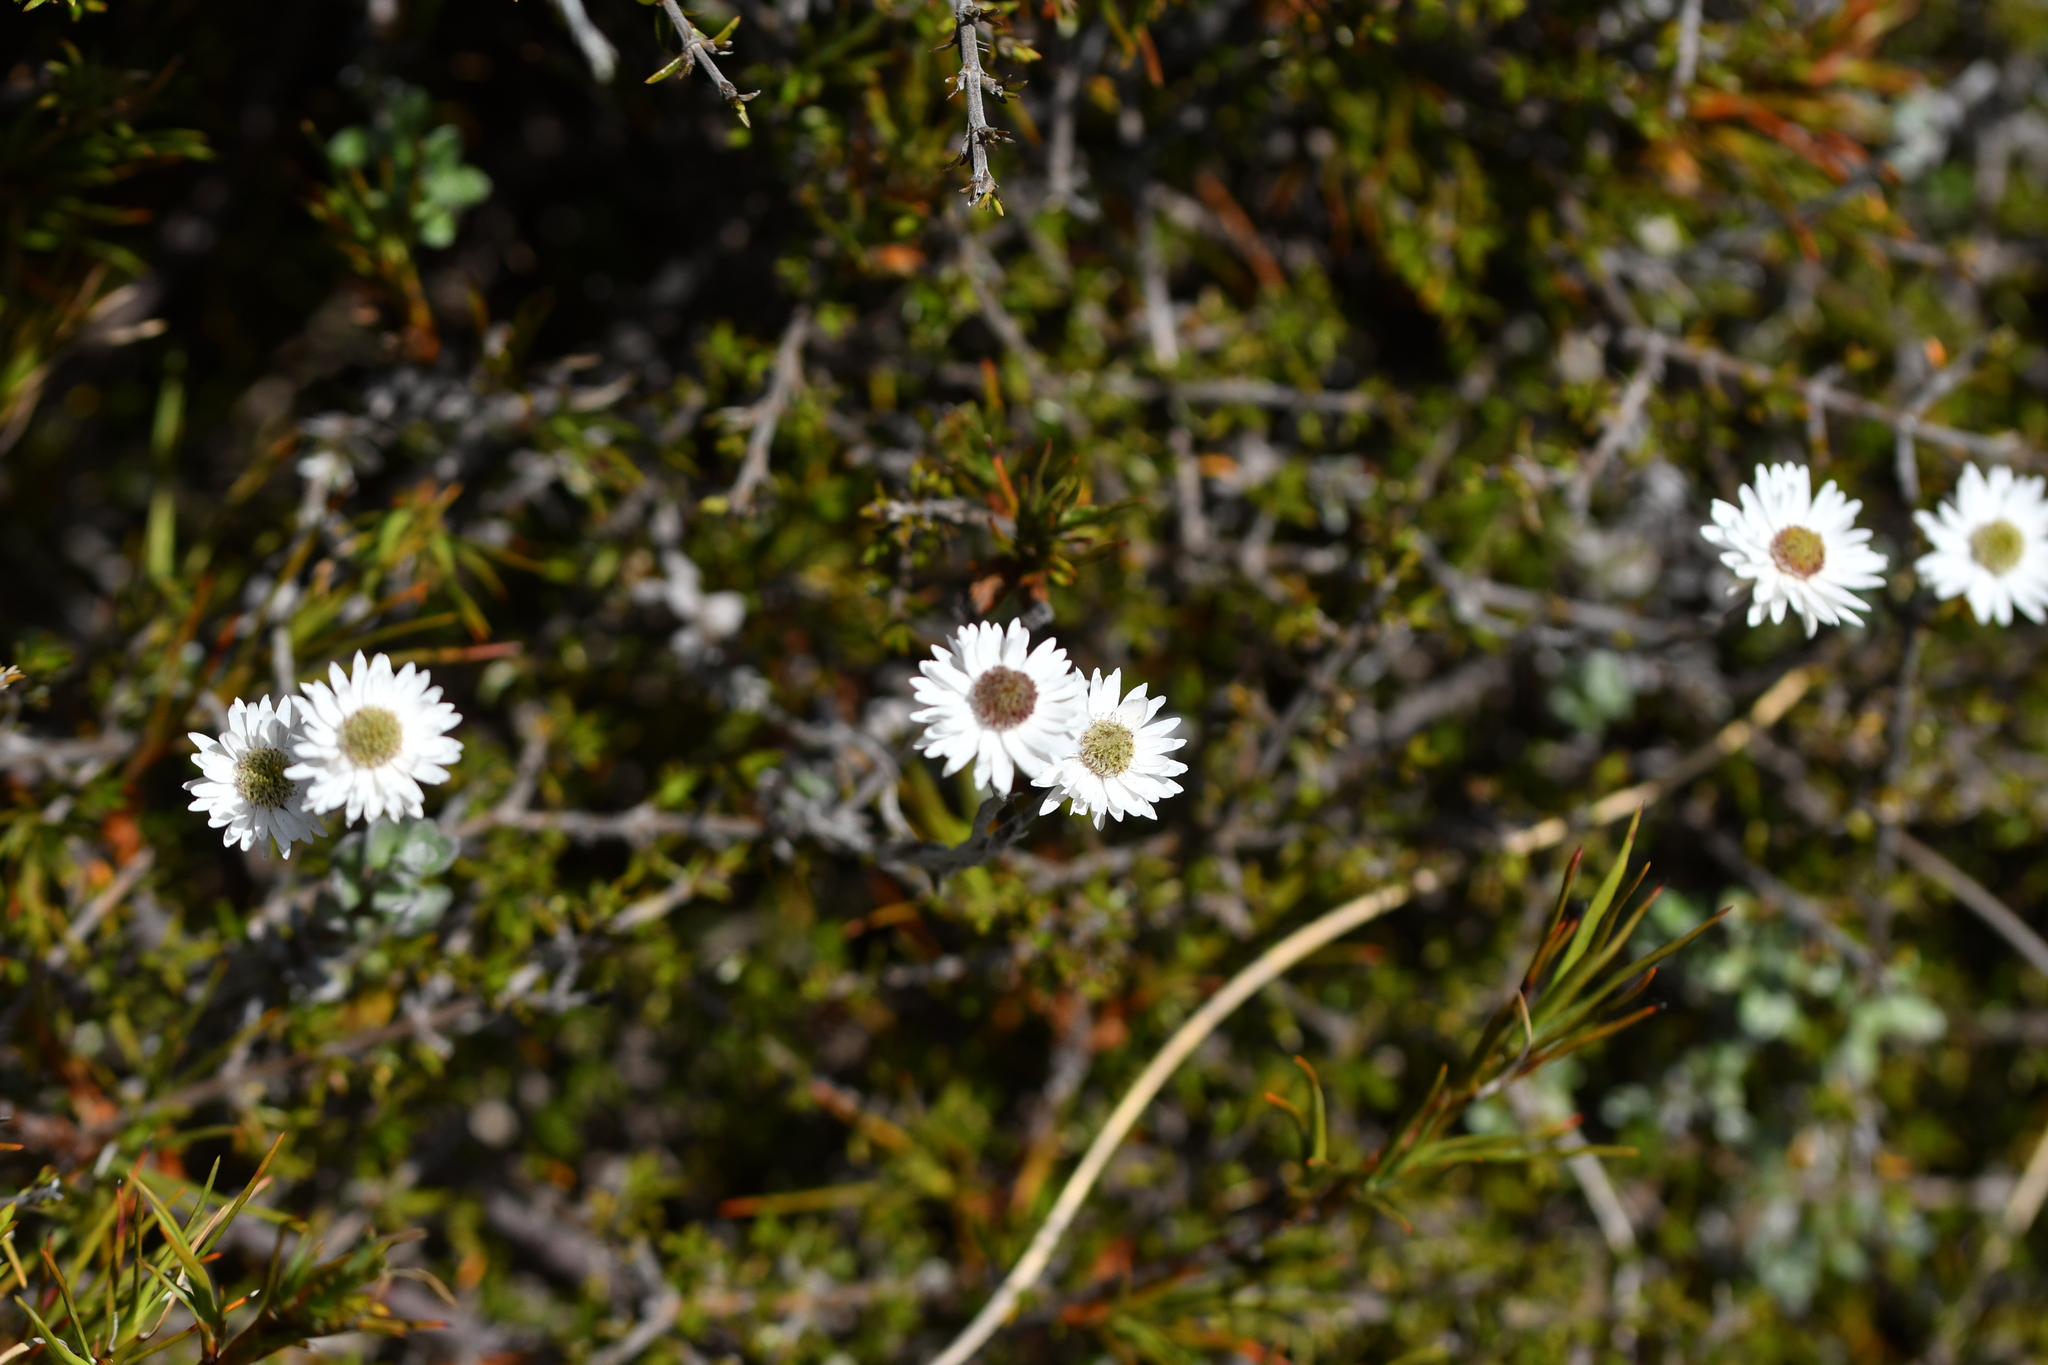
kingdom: Plantae
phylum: Tracheophyta
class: Magnoliopsida
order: Asterales
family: Asteraceae
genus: Anaphalioides
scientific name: Anaphalioides bellidioides
